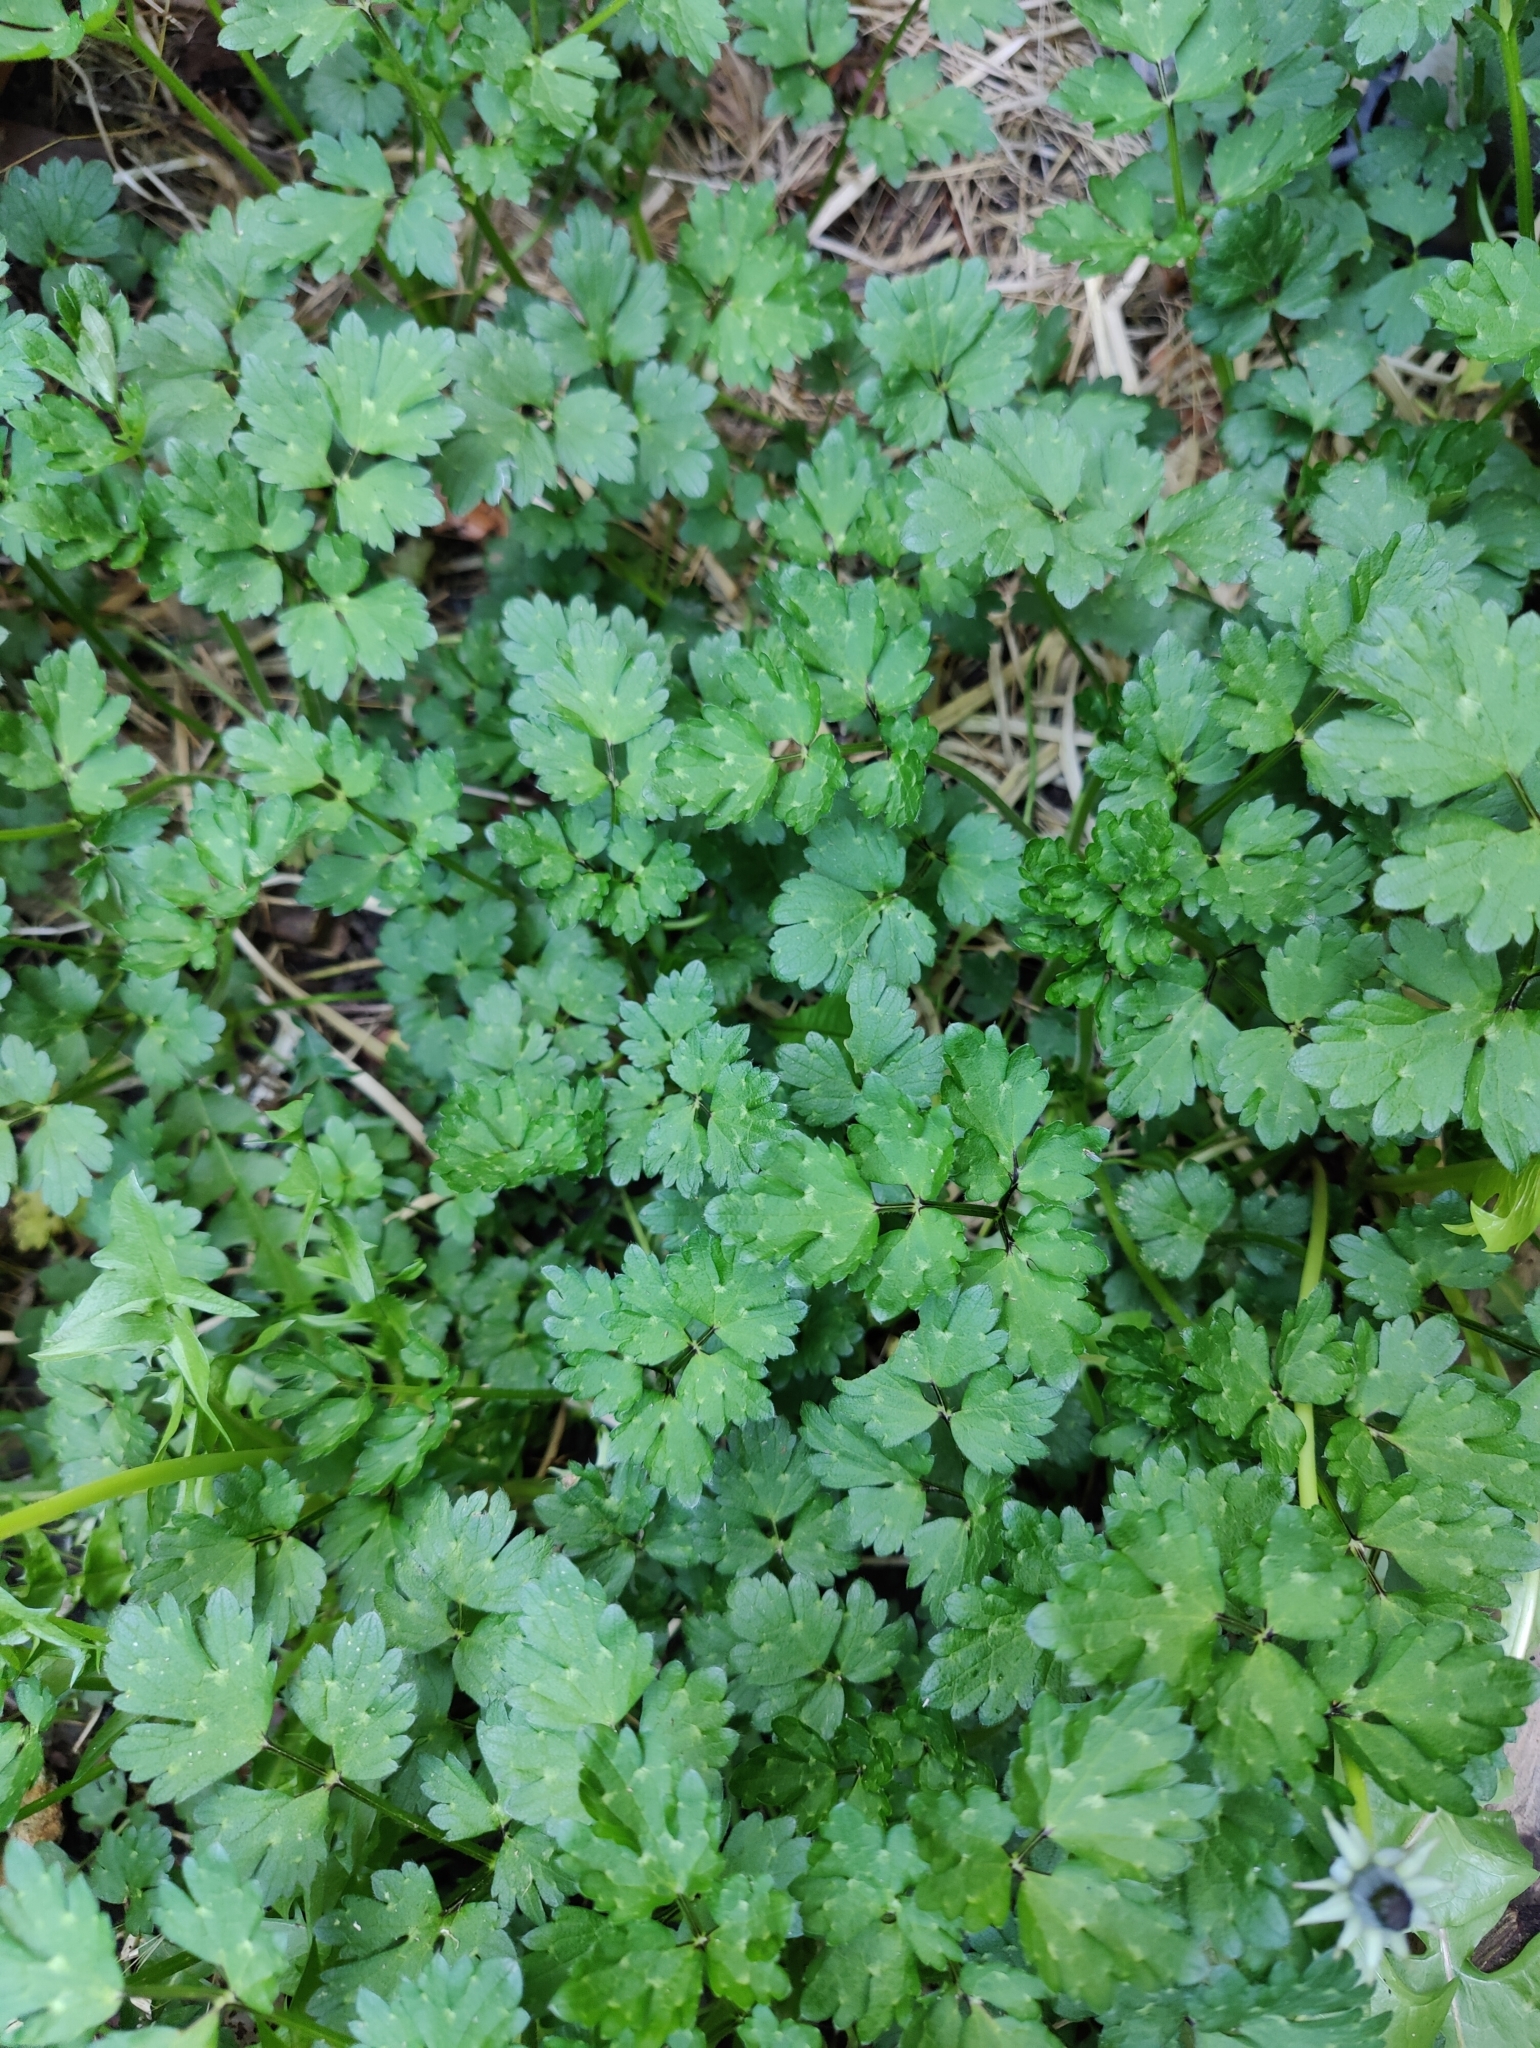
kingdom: Plantae
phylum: Tracheophyta
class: Magnoliopsida
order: Ranunculales
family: Ranunculaceae
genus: Ranunculus
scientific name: Ranunculus repens
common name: Creeping buttercup
